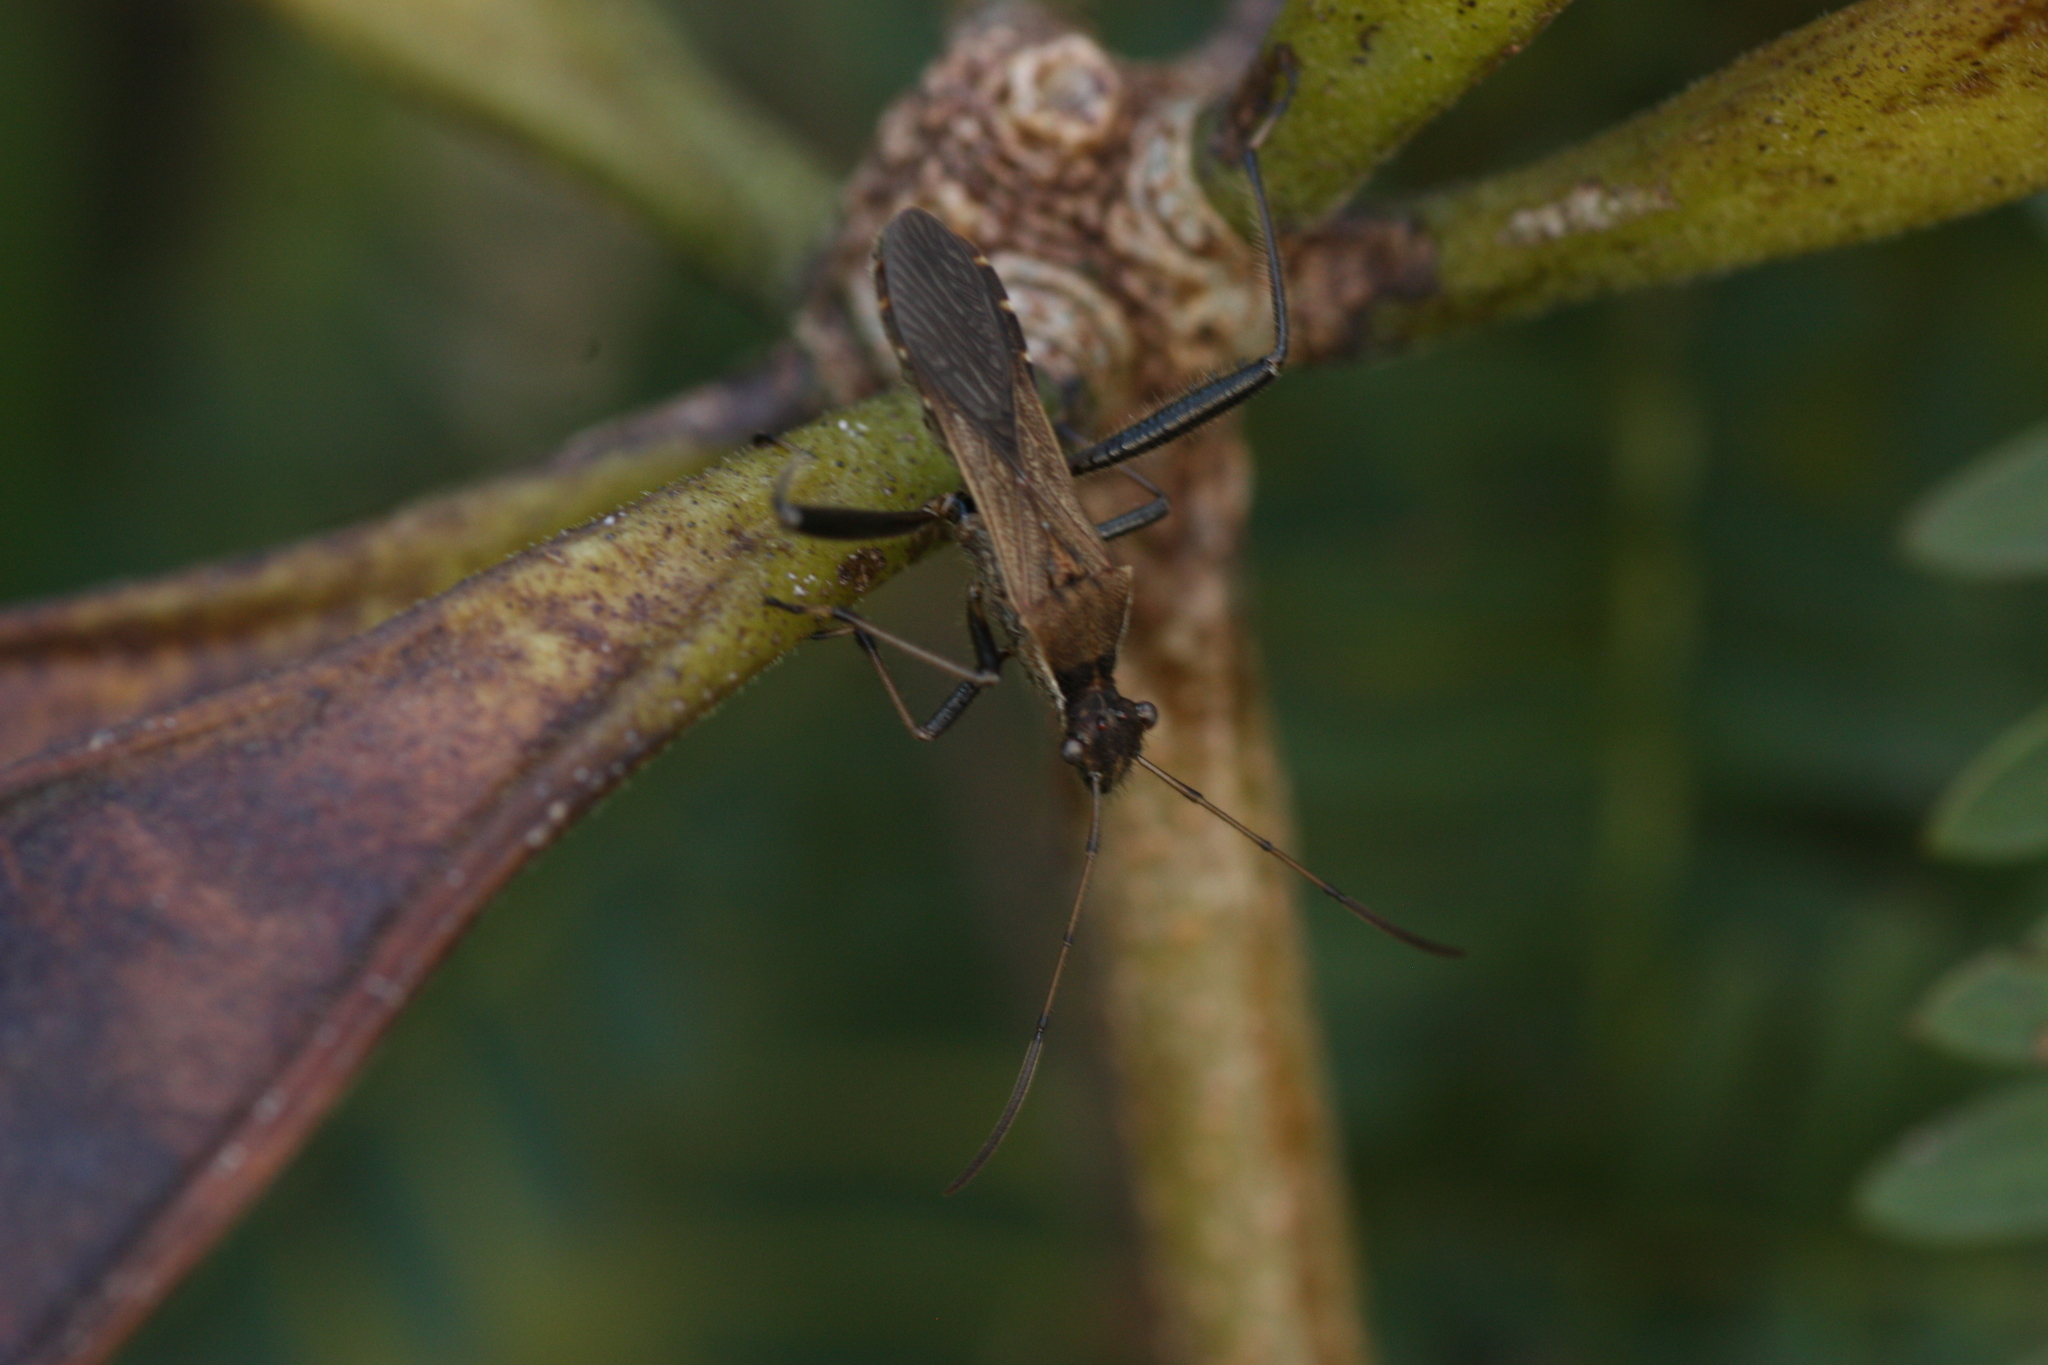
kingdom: Animalia
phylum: Arthropoda
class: Insecta
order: Hemiptera
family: Alydidae
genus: Alydus
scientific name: Alydus pilosulus
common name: Broad-headed bug
